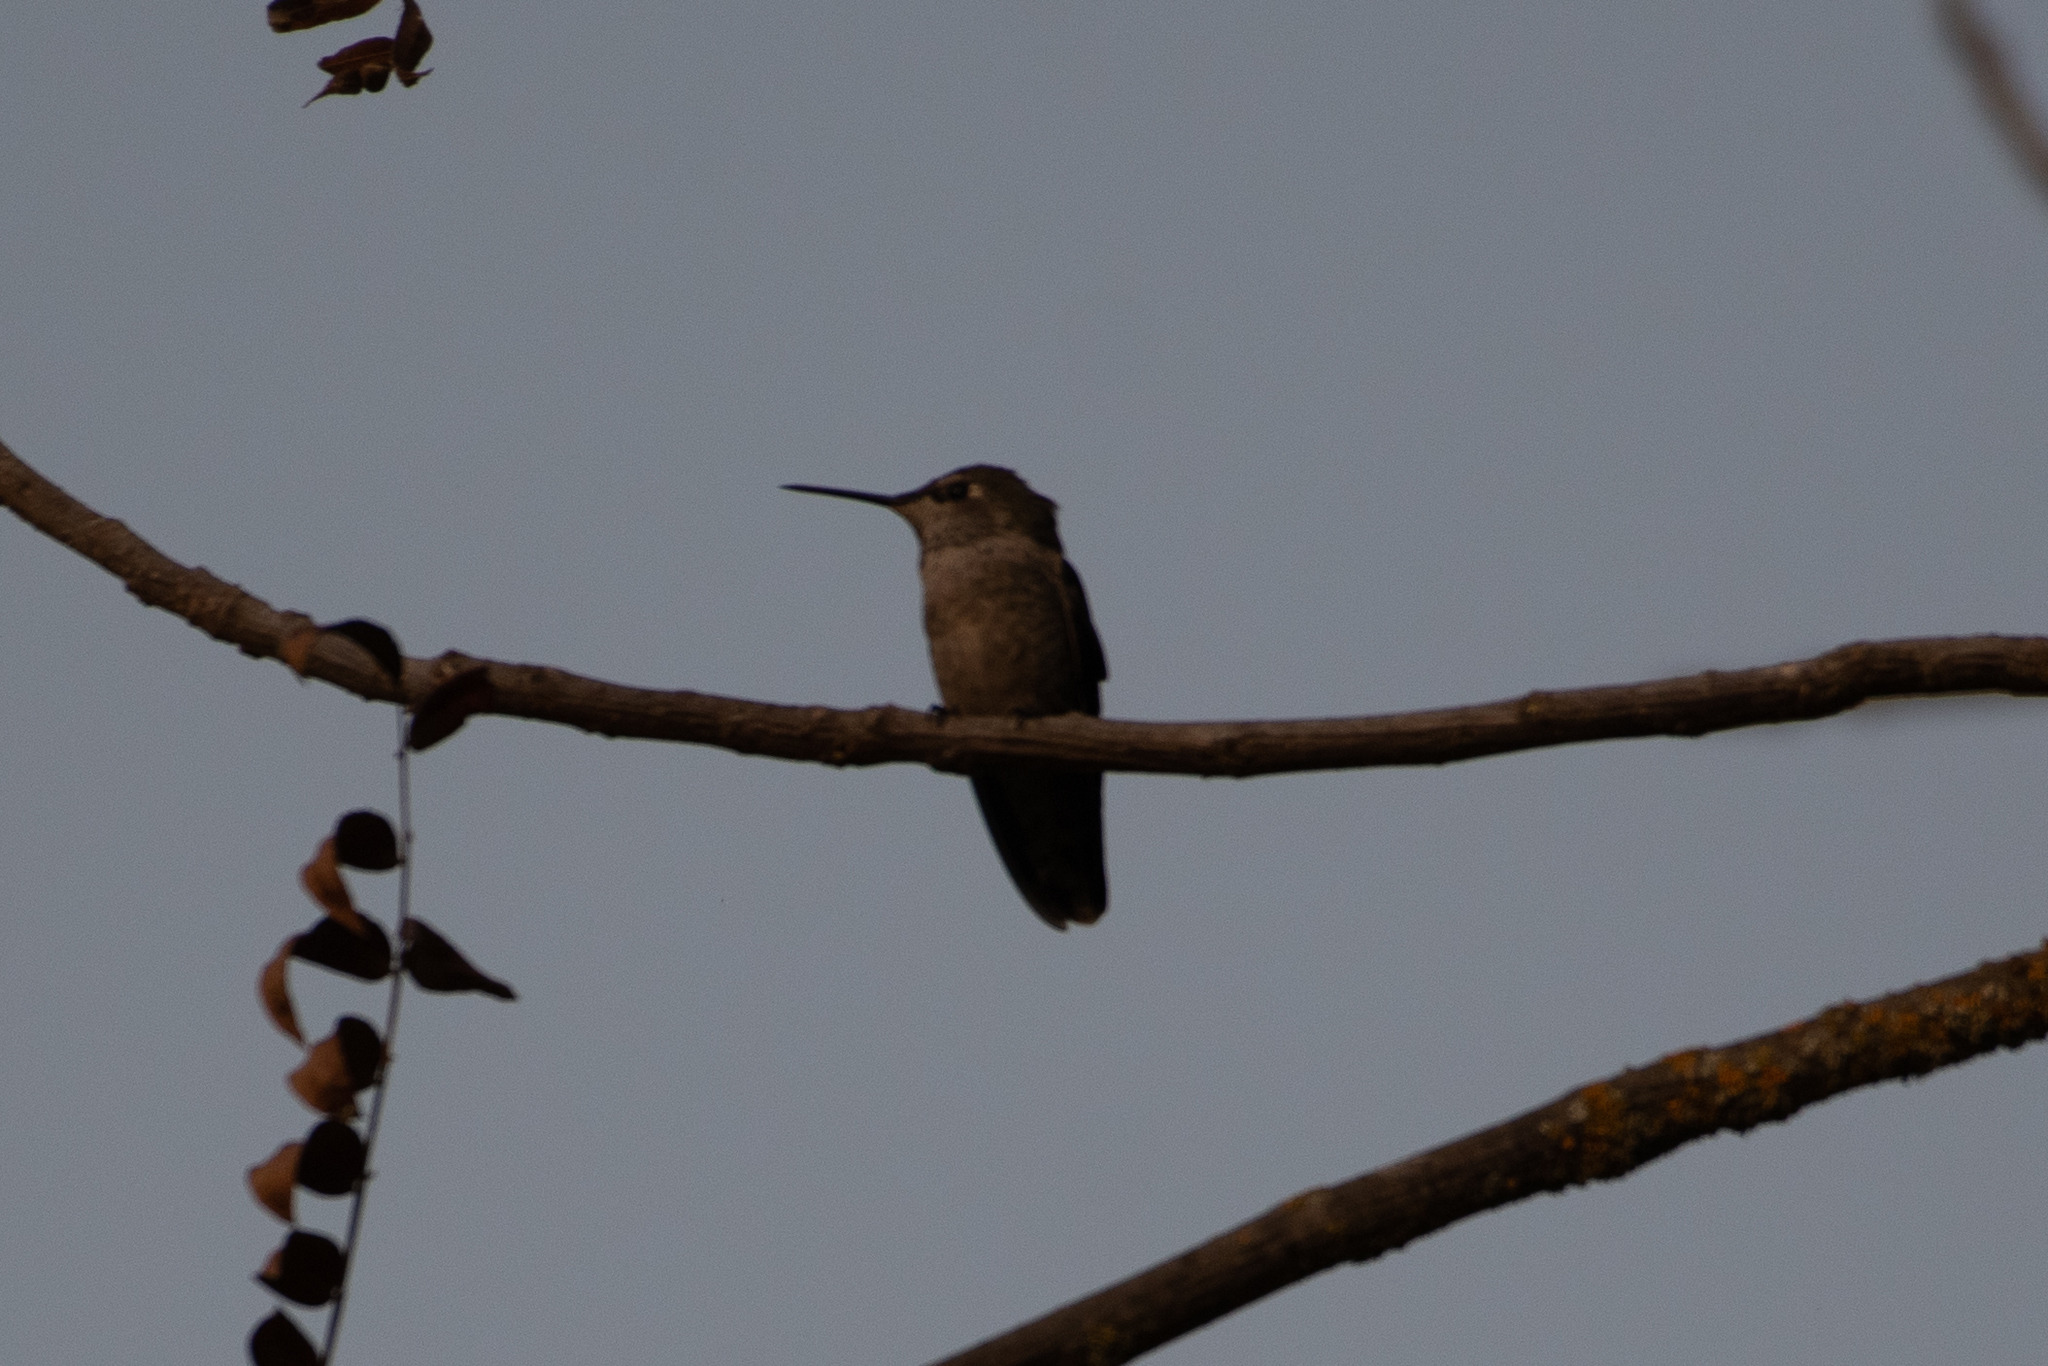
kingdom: Animalia
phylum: Chordata
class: Aves
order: Apodiformes
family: Trochilidae
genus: Calypte
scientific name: Calypte anna
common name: Anna's hummingbird
